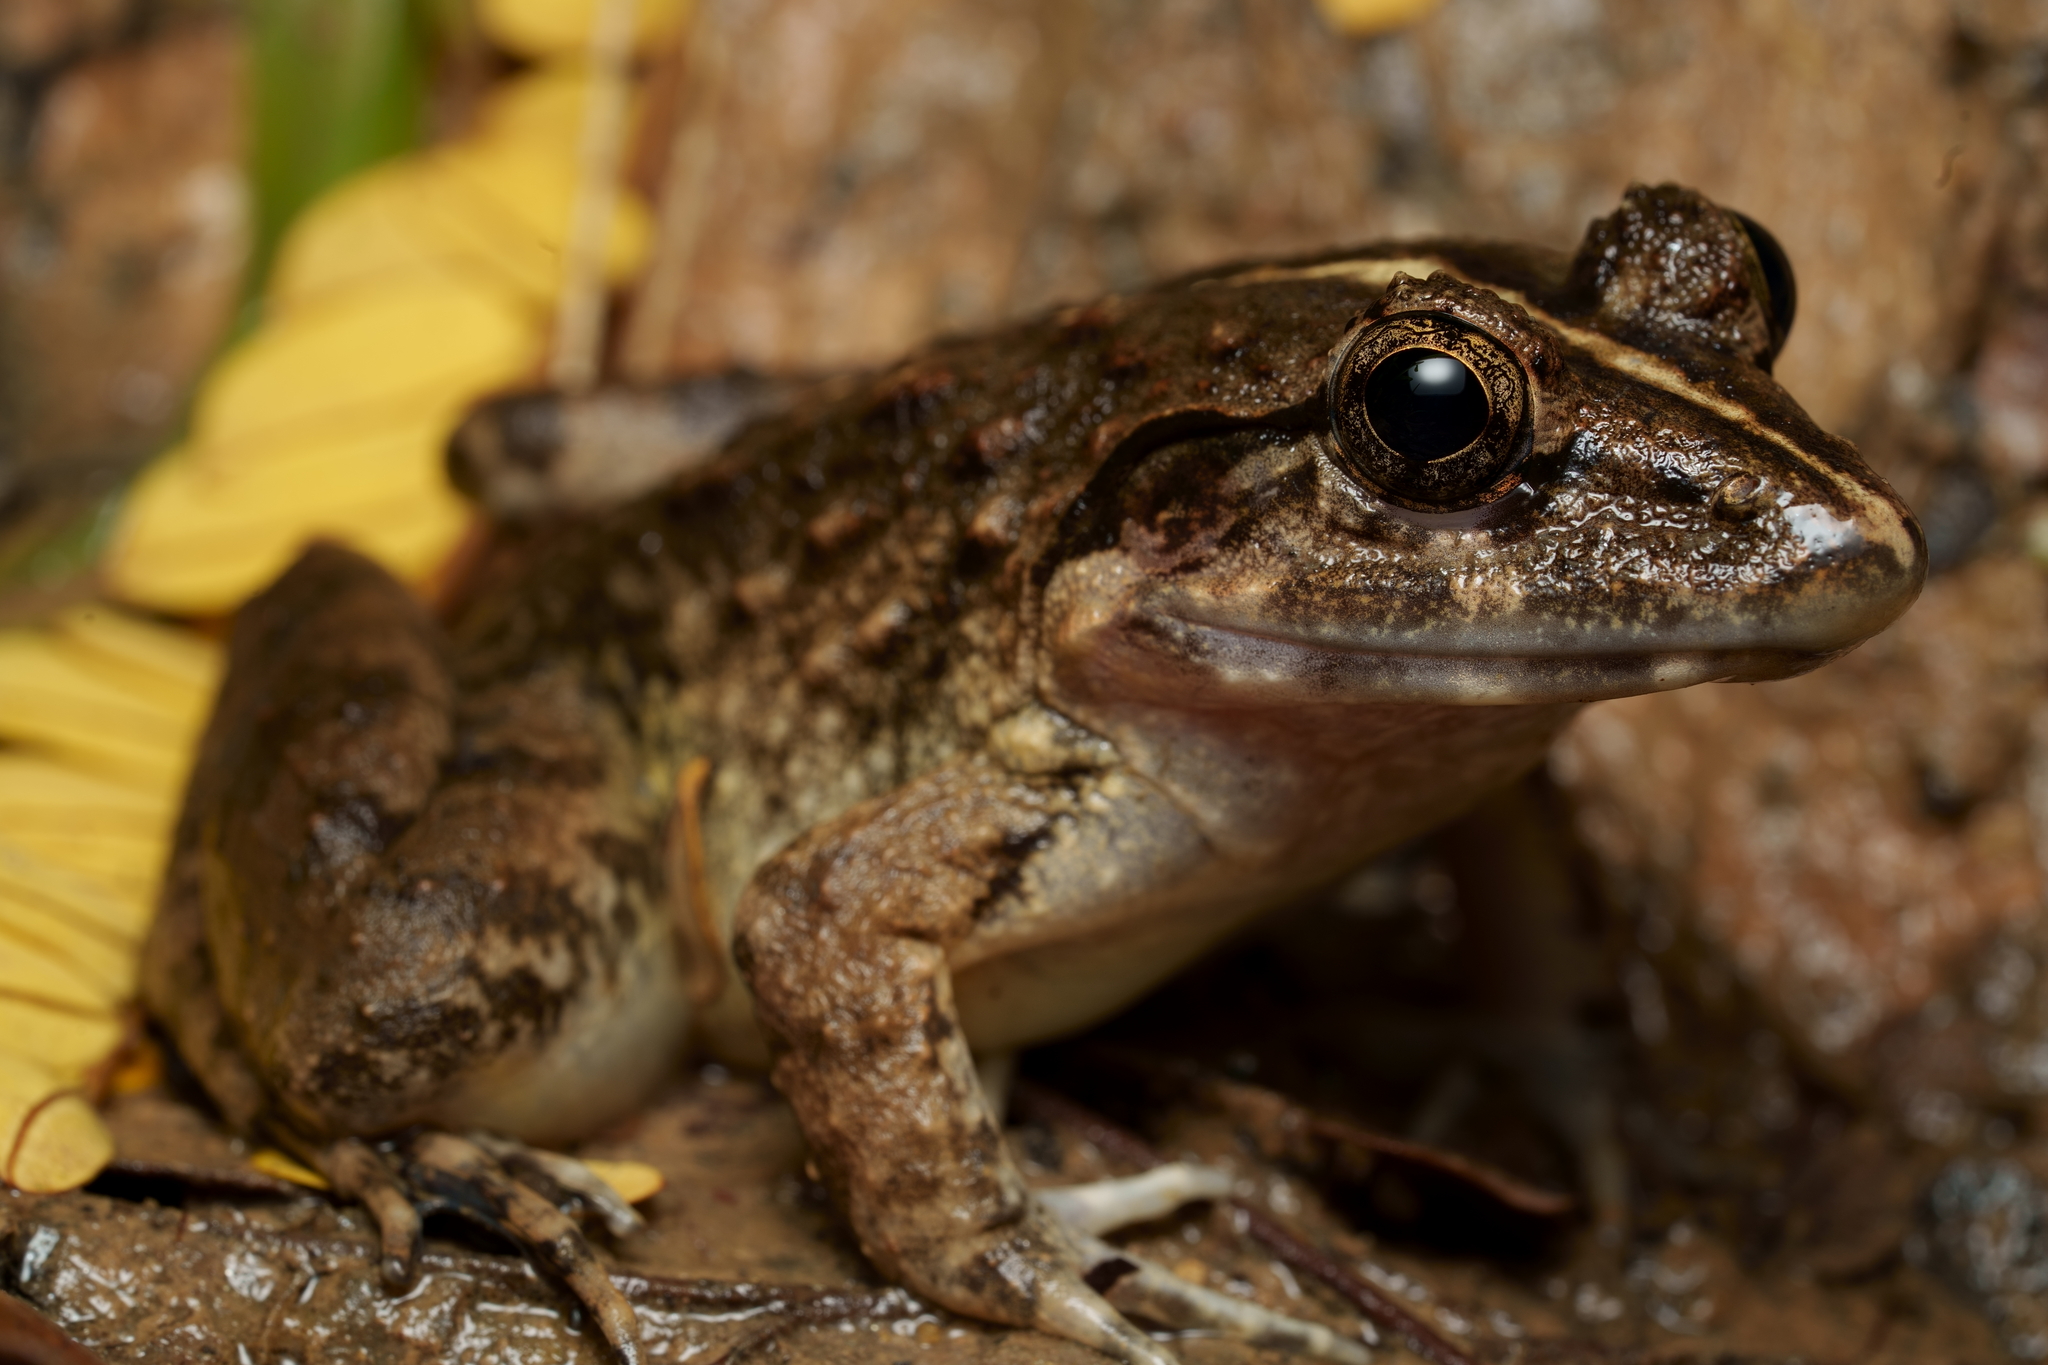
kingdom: Animalia
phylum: Chordata
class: Amphibia
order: Anura
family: Dicroglossidae
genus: Fejervarya
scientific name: Fejervarya limnocharis
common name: Asian grass frog/common pond frog/field frog/grass frog/indian rice frog
